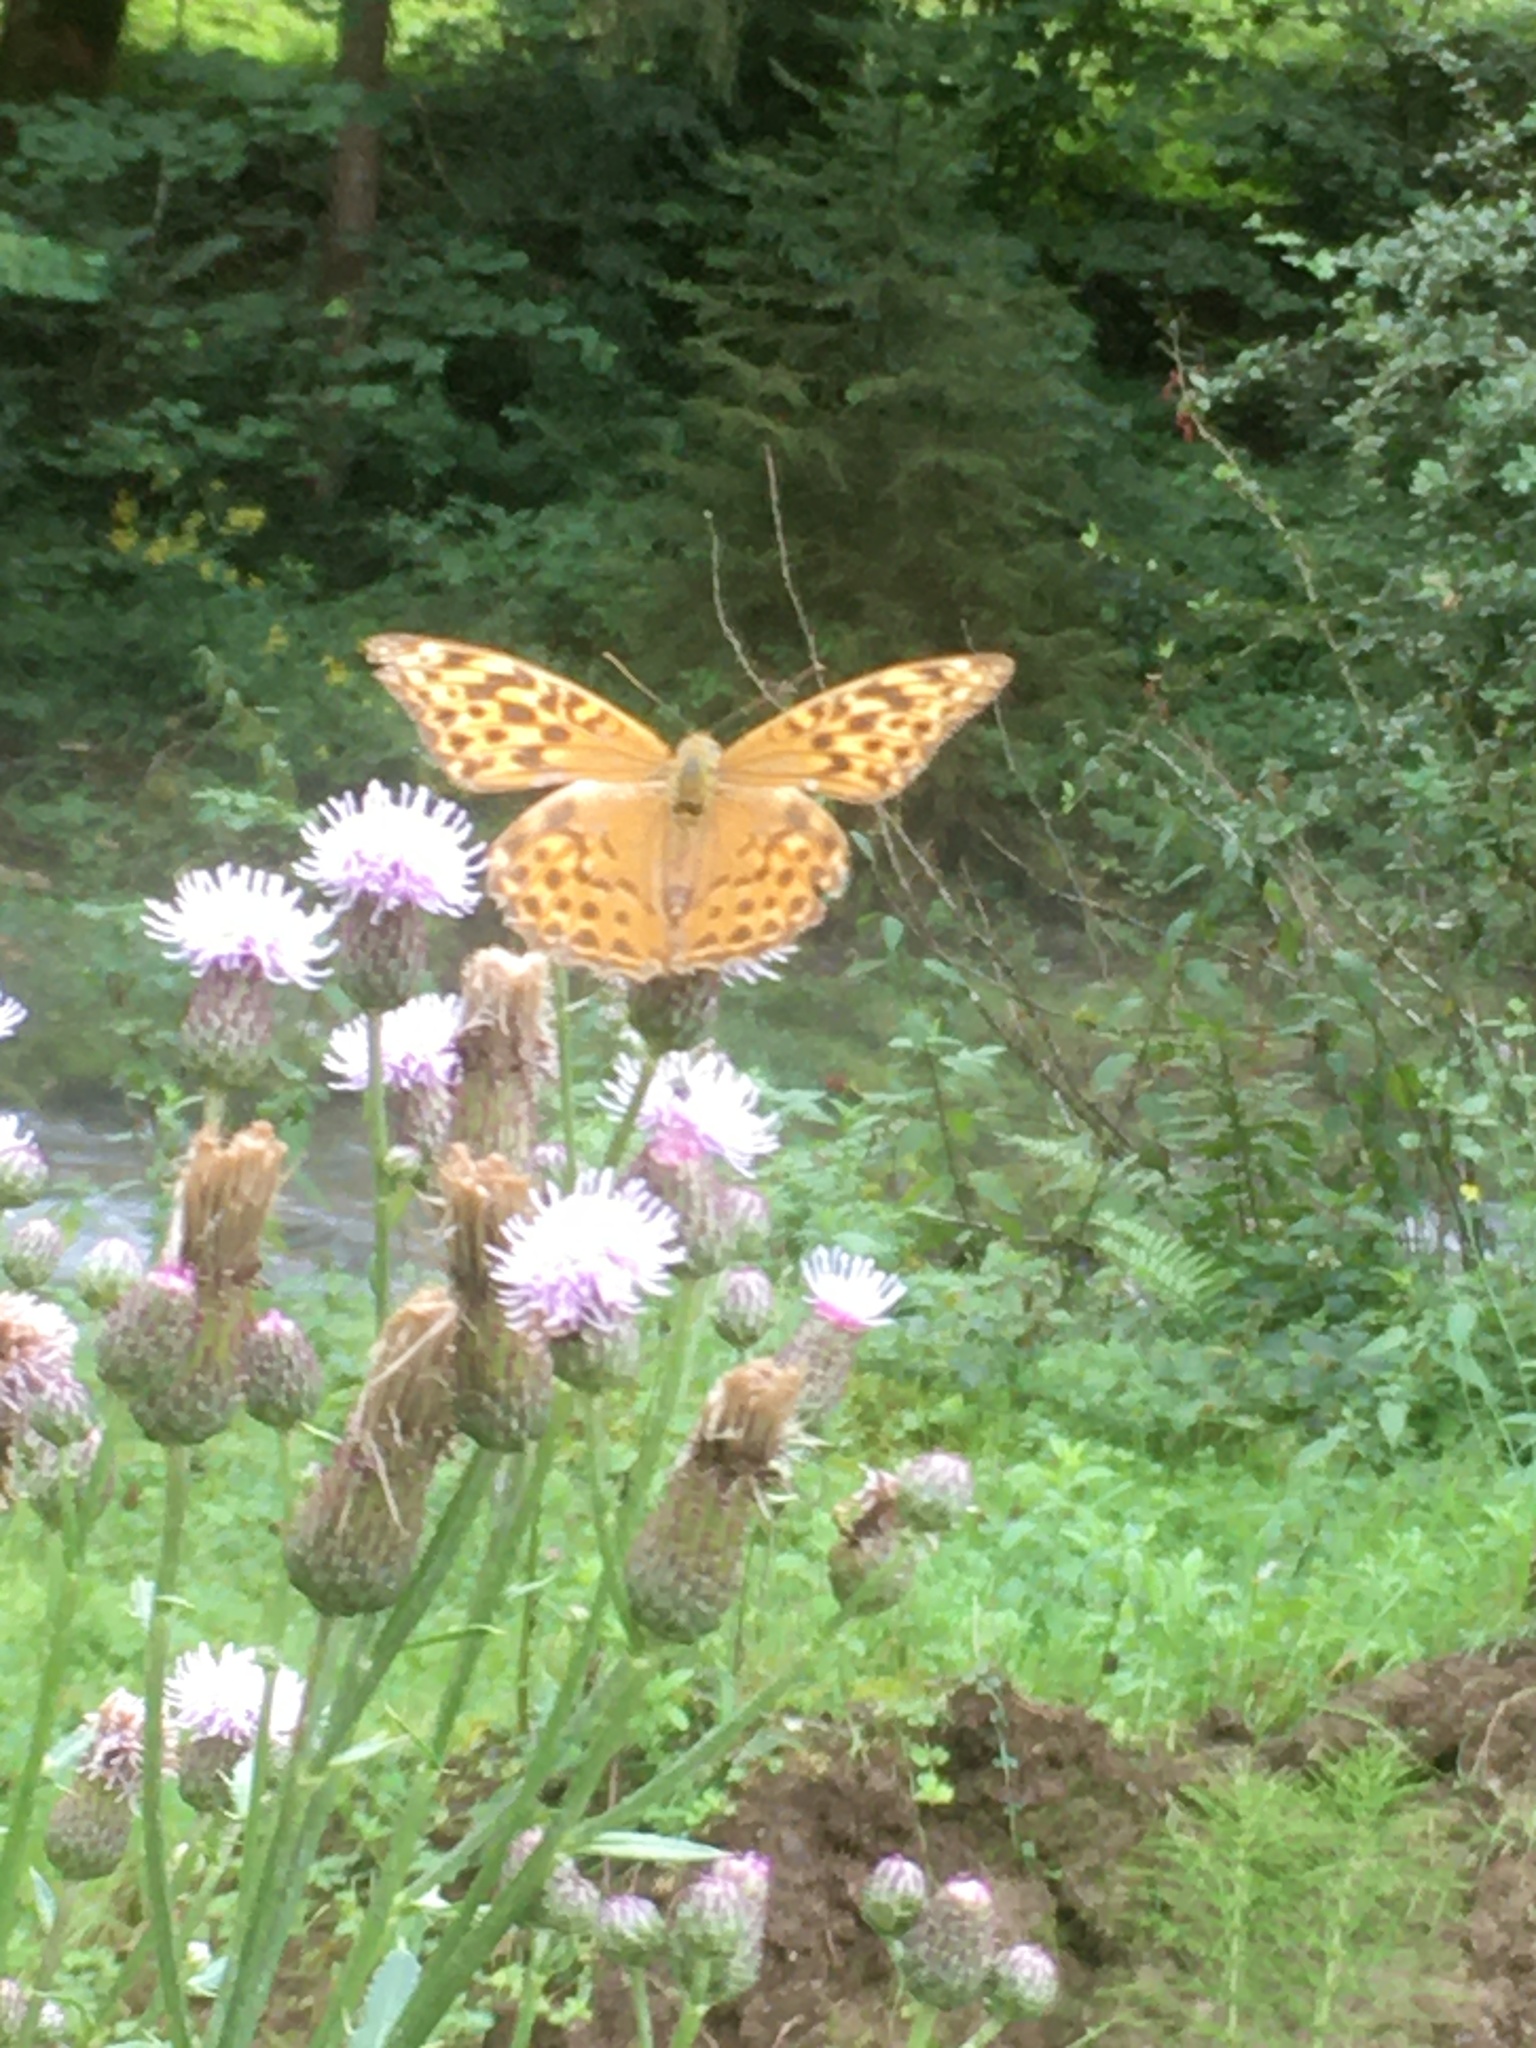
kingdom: Animalia
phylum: Arthropoda
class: Insecta
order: Lepidoptera
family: Nymphalidae
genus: Argynnis
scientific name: Argynnis paphia
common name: Silver-washed fritillary
